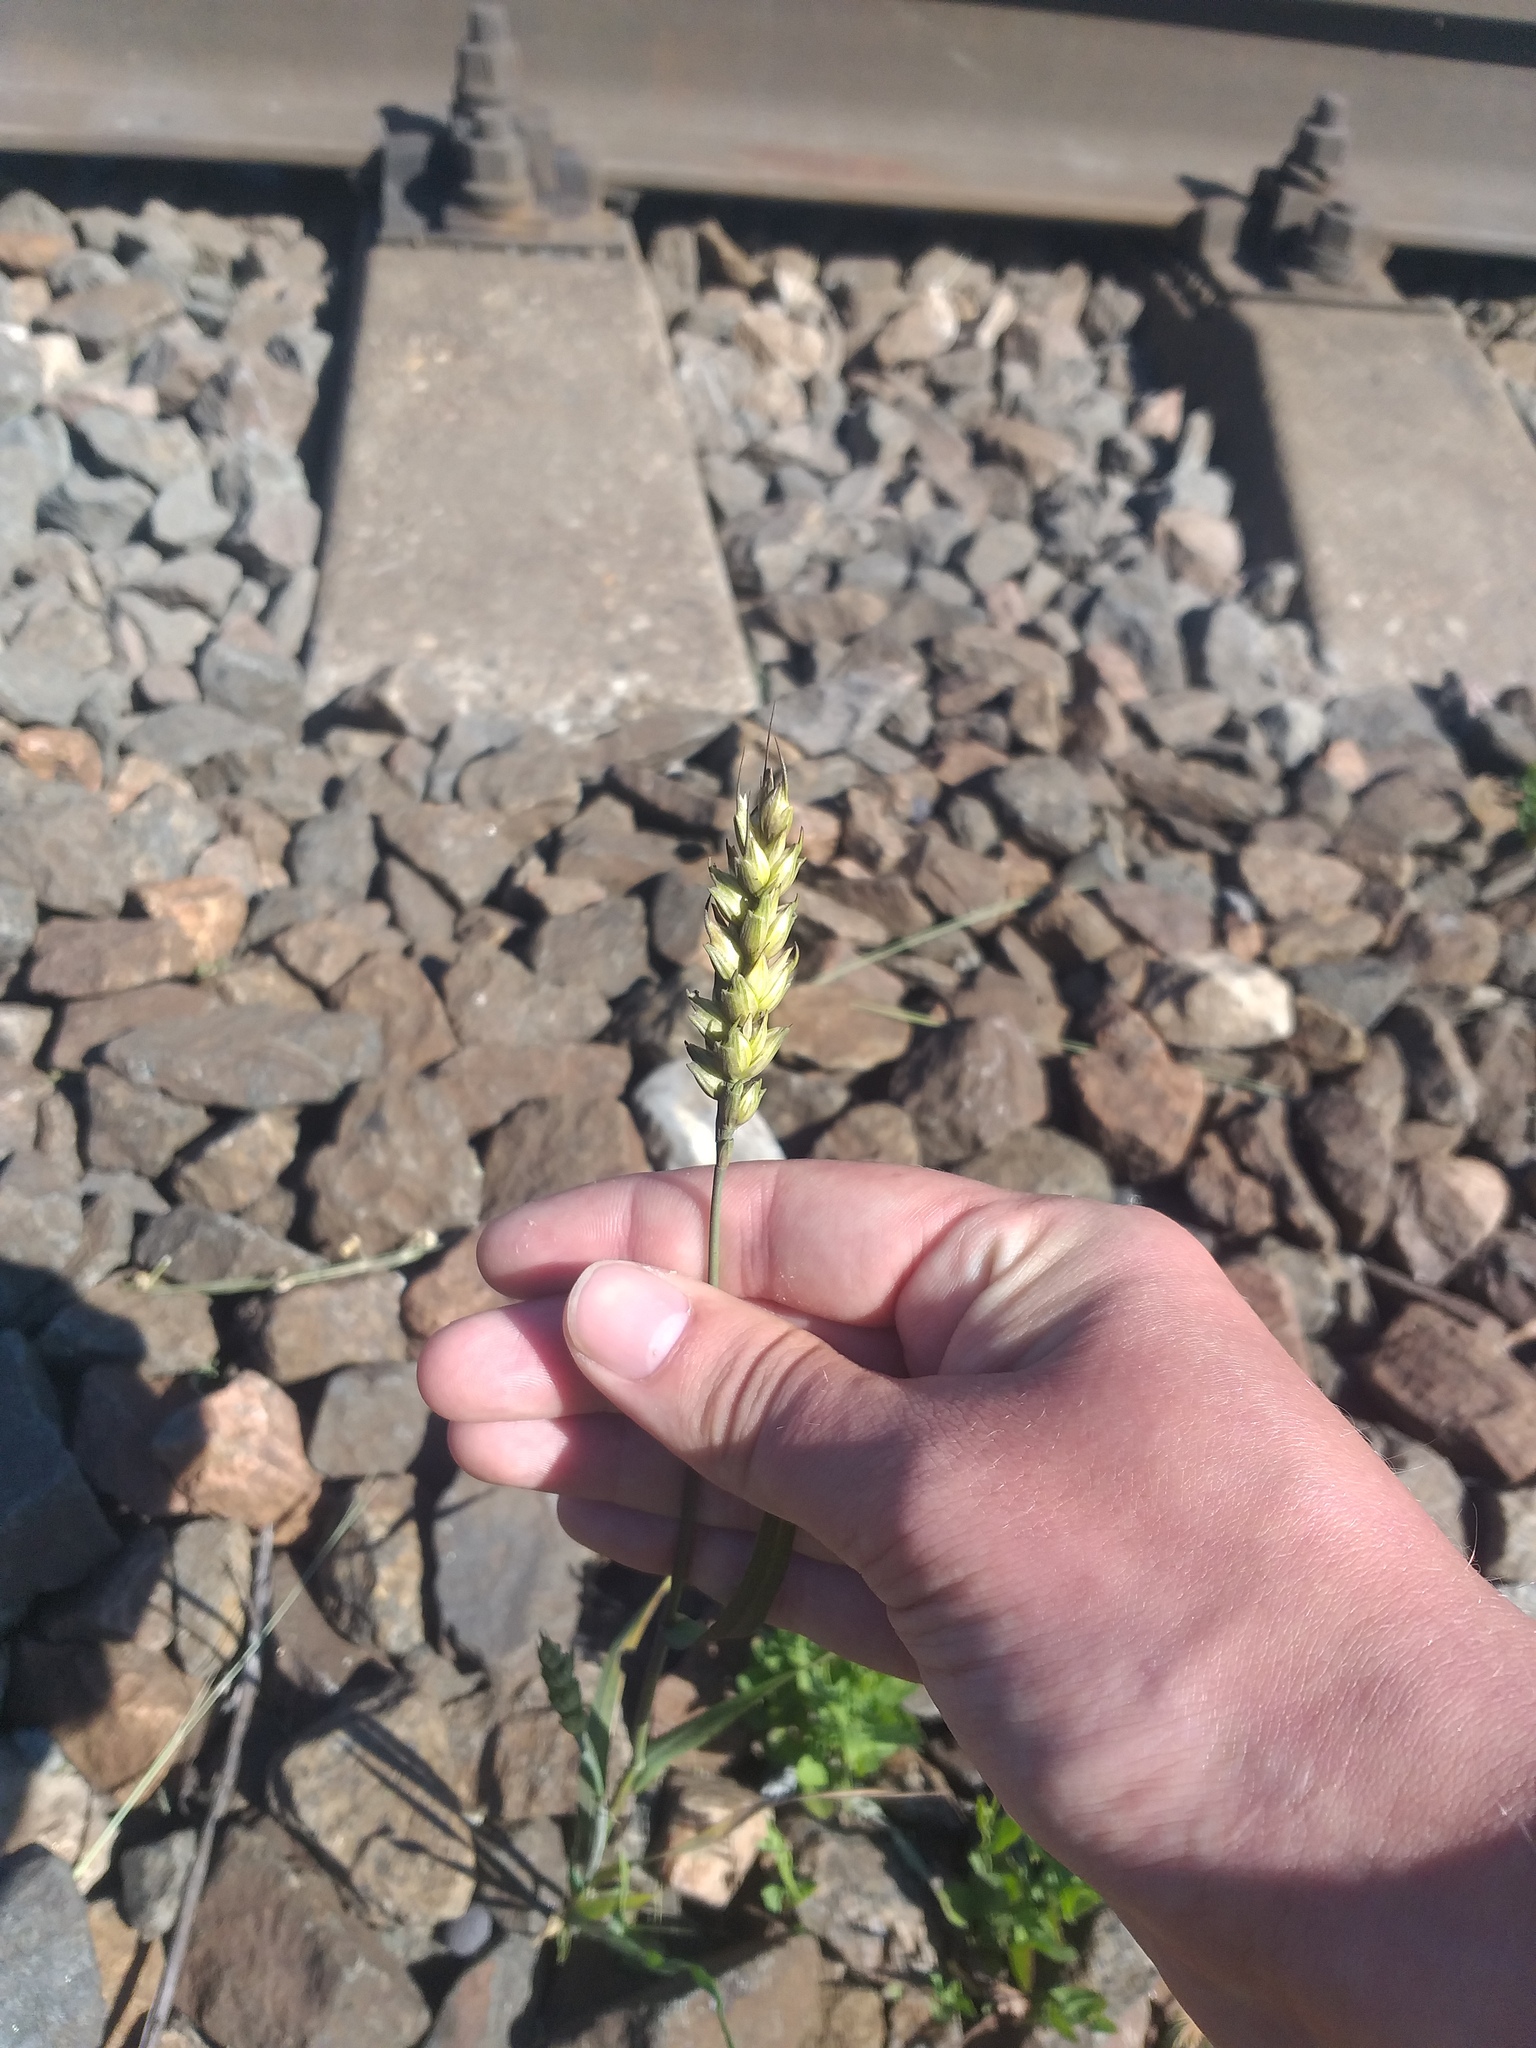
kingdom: Plantae
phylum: Tracheophyta
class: Liliopsida
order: Poales
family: Poaceae
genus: Triticum
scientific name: Triticum aestivum
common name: Common wheat
